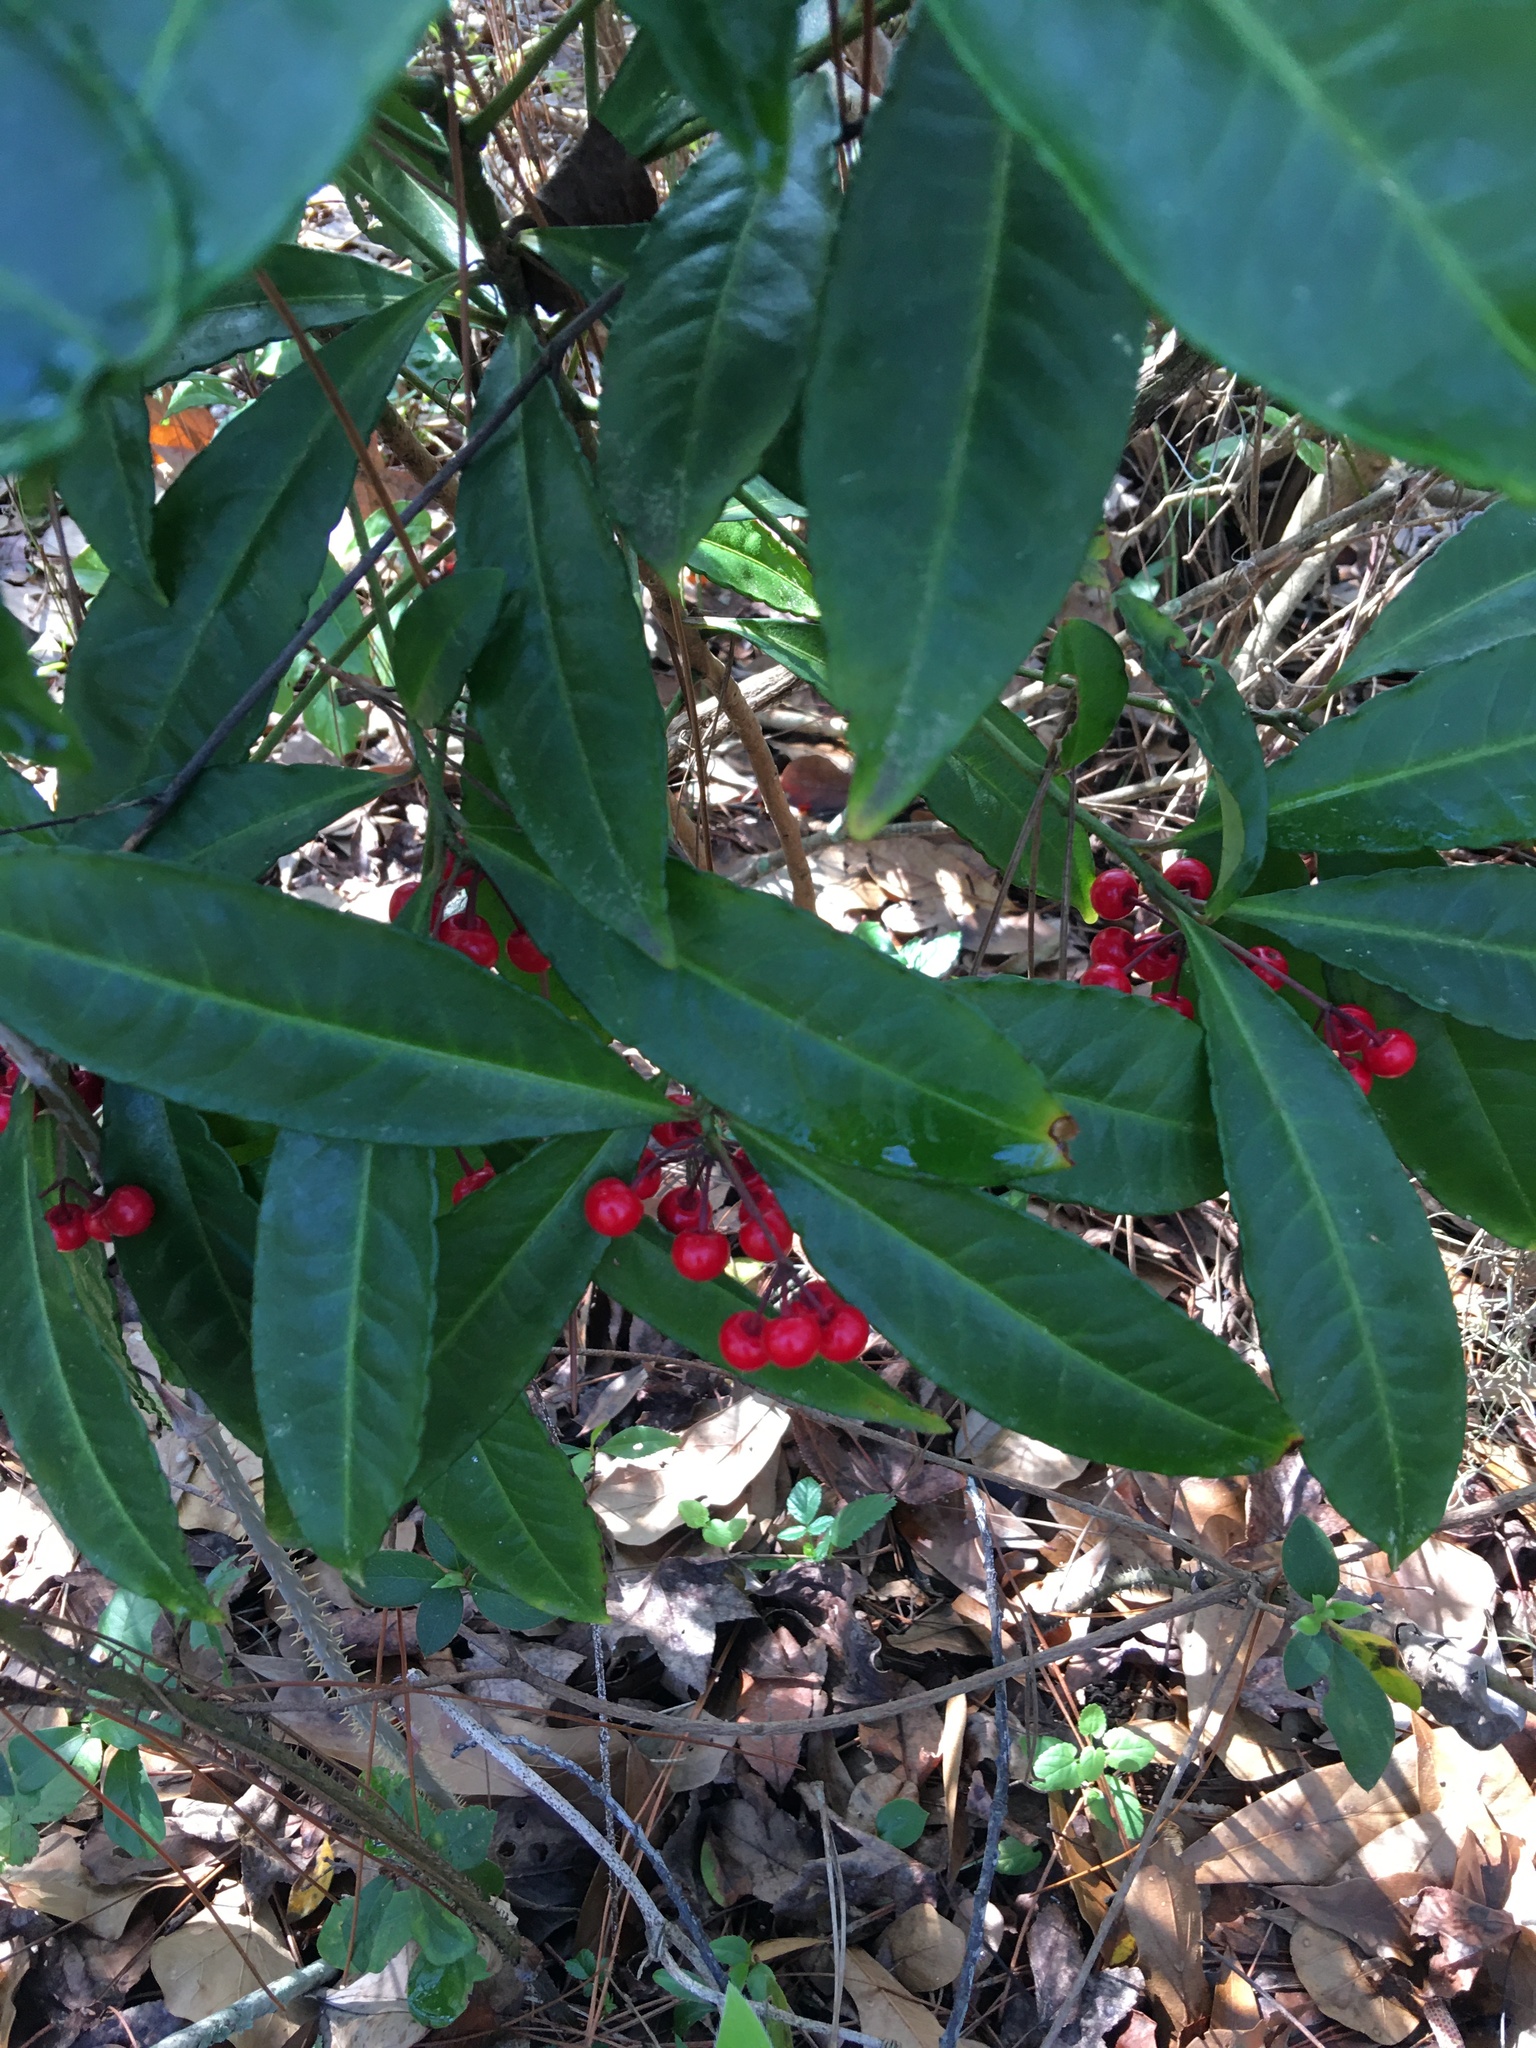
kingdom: Plantae
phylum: Tracheophyta
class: Magnoliopsida
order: Ericales
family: Primulaceae
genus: Ardisia
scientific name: Ardisia crenata
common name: Hen's eyes
